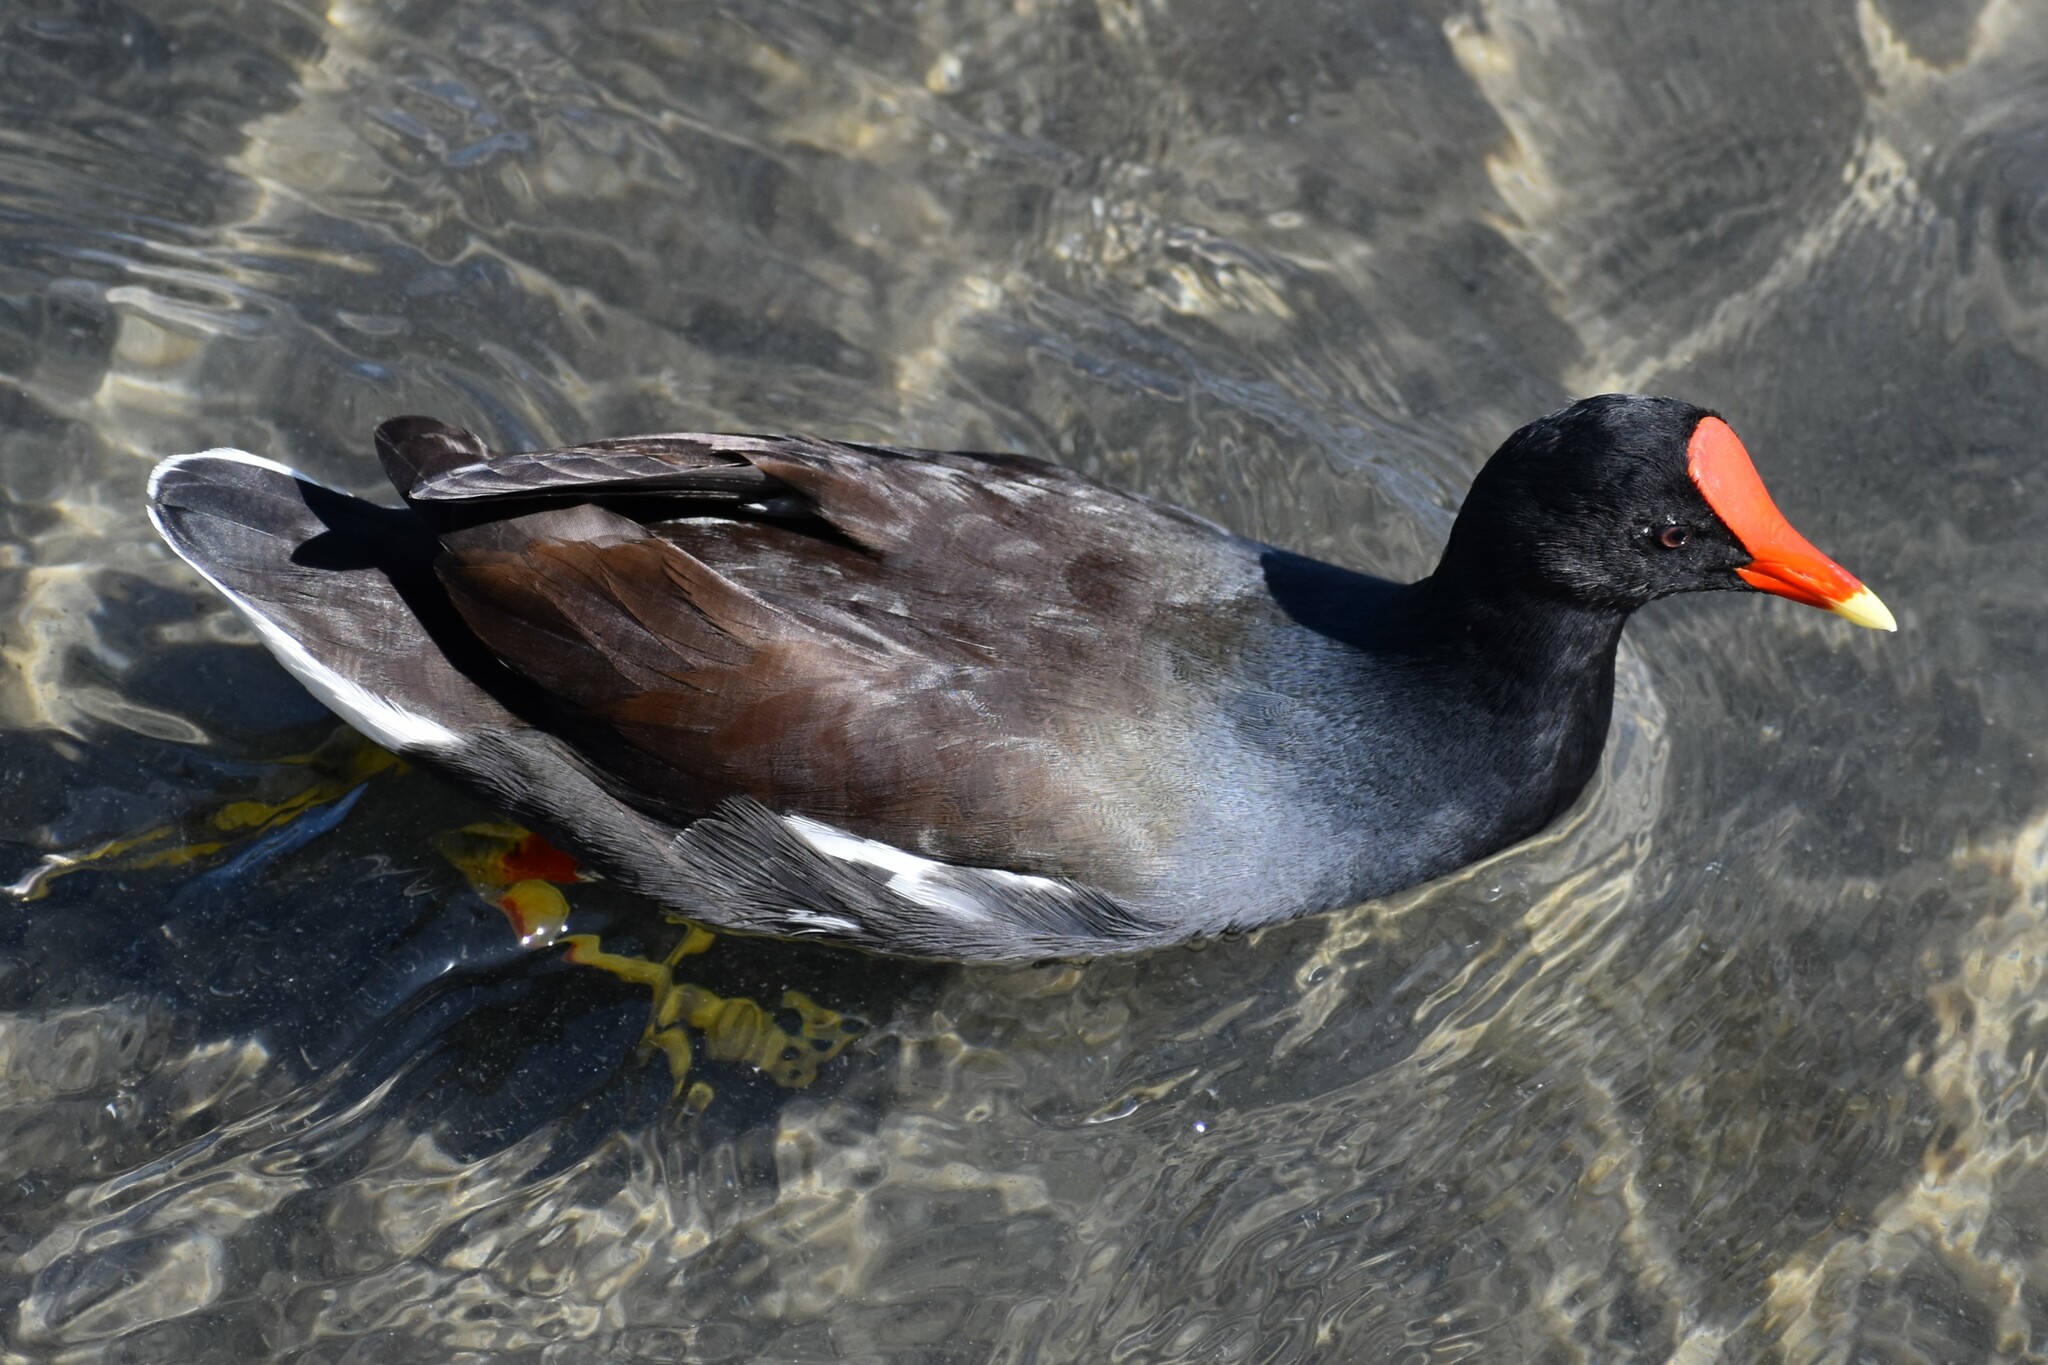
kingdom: Animalia
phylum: Chordata
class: Aves
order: Gruiformes
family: Rallidae
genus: Gallinula
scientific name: Gallinula chloropus
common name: Common moorhen
